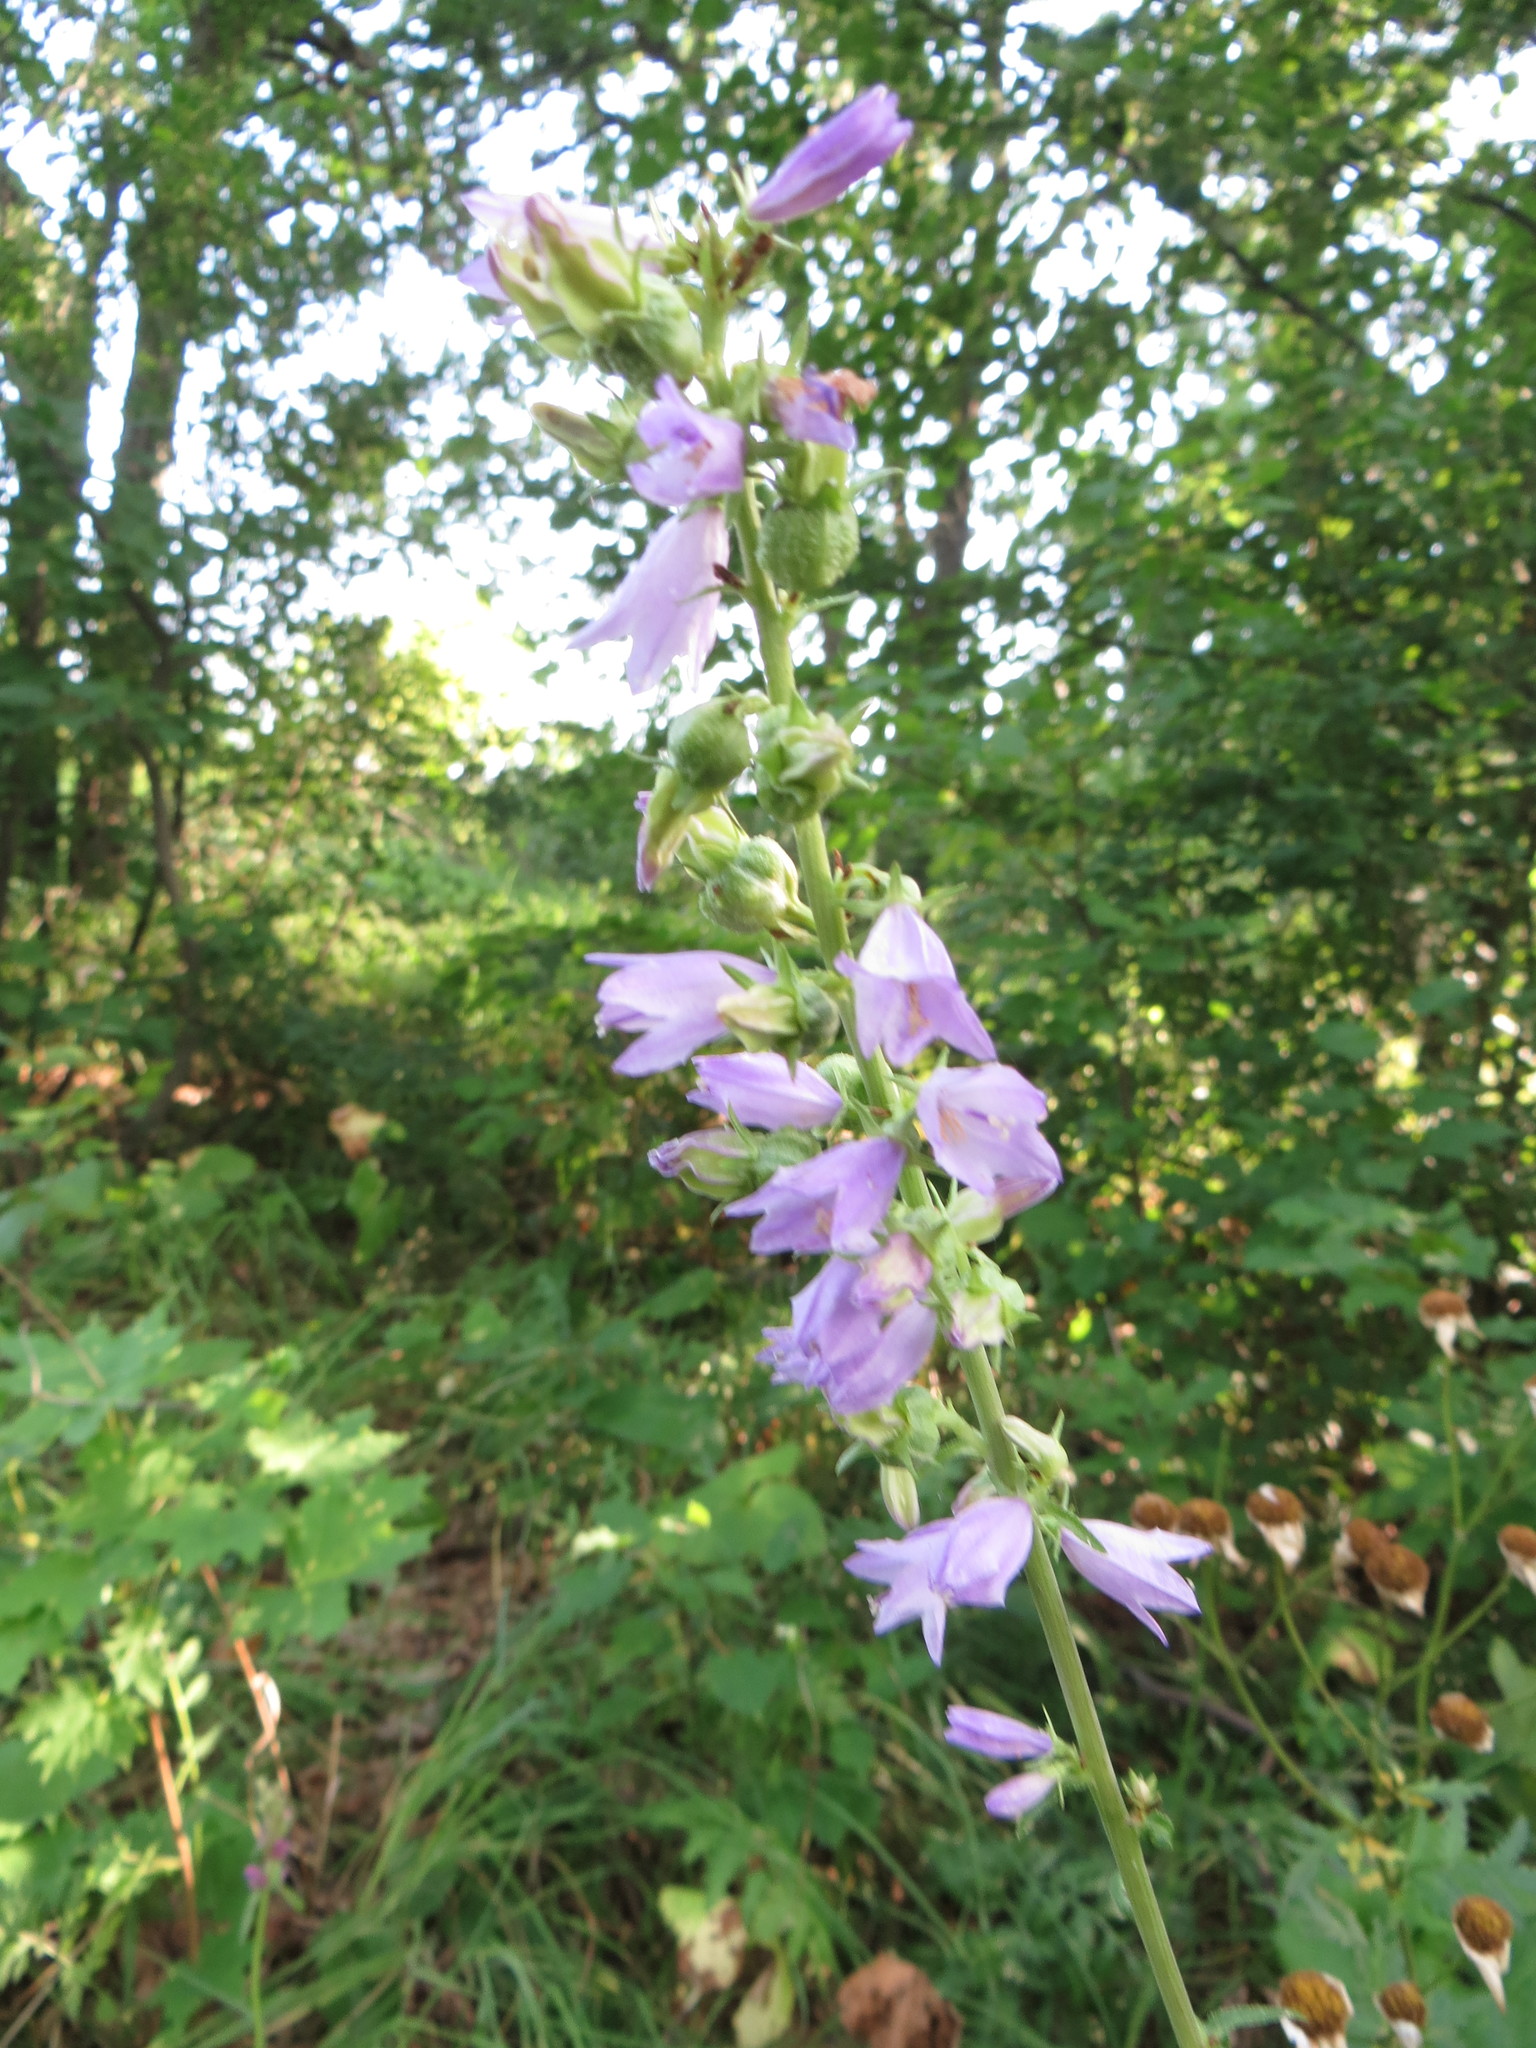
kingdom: Plantae
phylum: Tracheophyta
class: Magnoliopsida
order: Asterales
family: Campanulaceae
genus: Campanula
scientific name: Campanula bononiensis
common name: Pale bellflower
